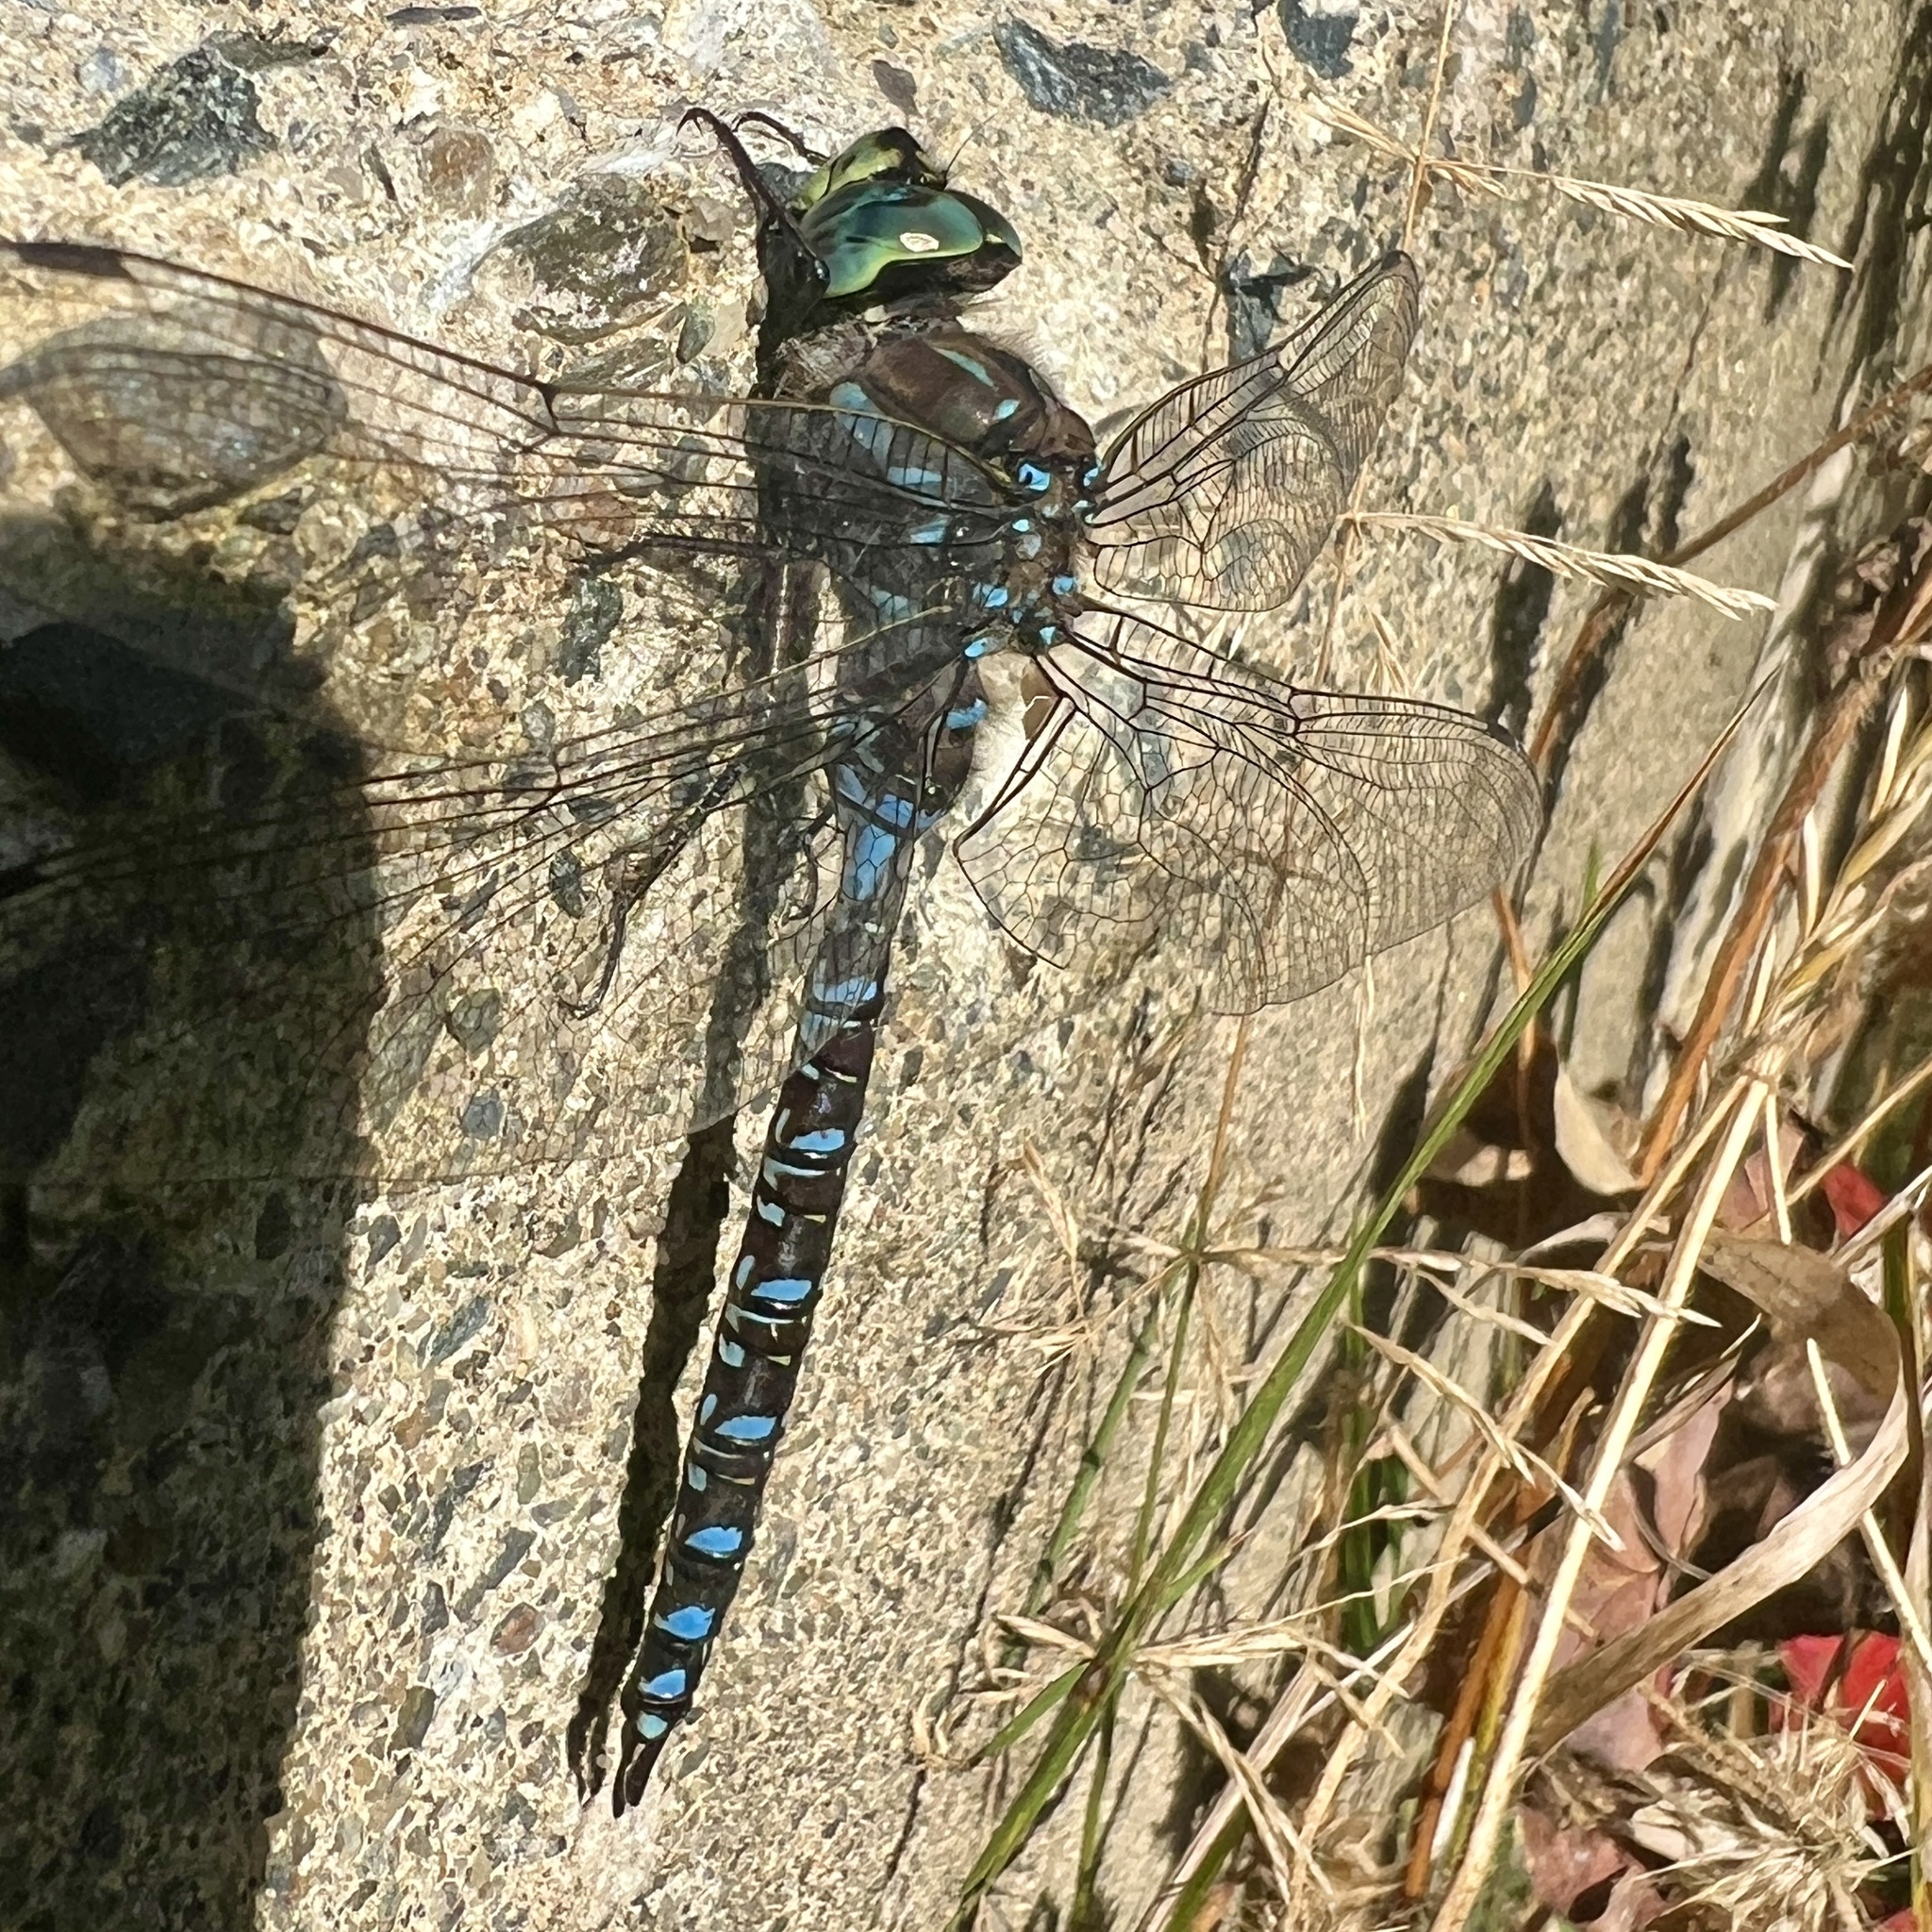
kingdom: Animalia
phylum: Arthropoda
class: Insecta
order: Odonata
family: Aeshnidae
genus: Aeshna
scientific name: Aeshna eremita
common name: Lake darner
